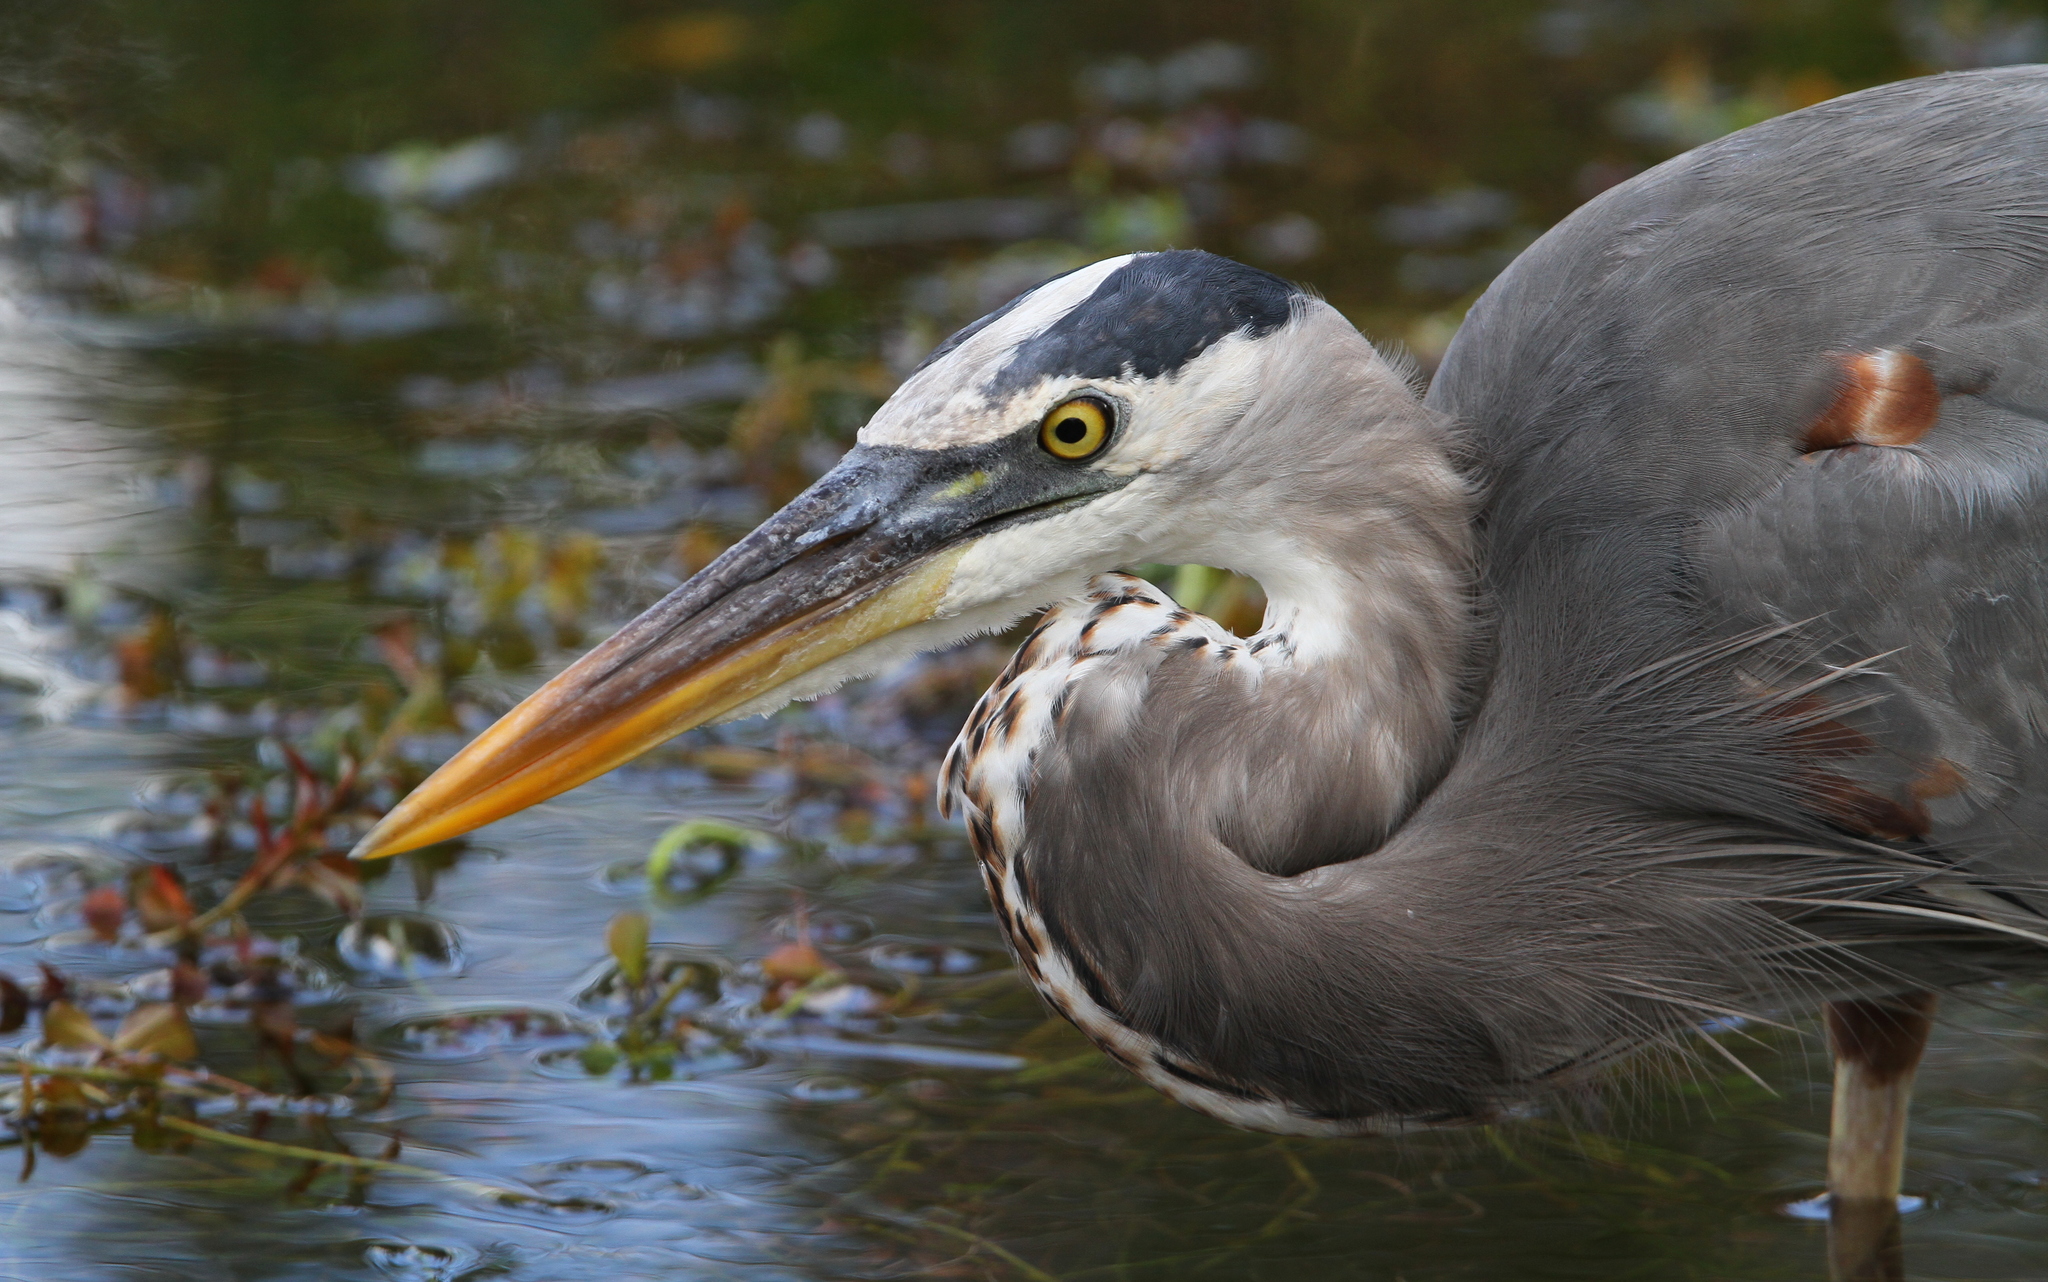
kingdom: Animalia
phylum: Chordata
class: Aves
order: Pelecaniformes
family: Ardeidae
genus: Ardea
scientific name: Ardea herodias
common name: Great blue heron
